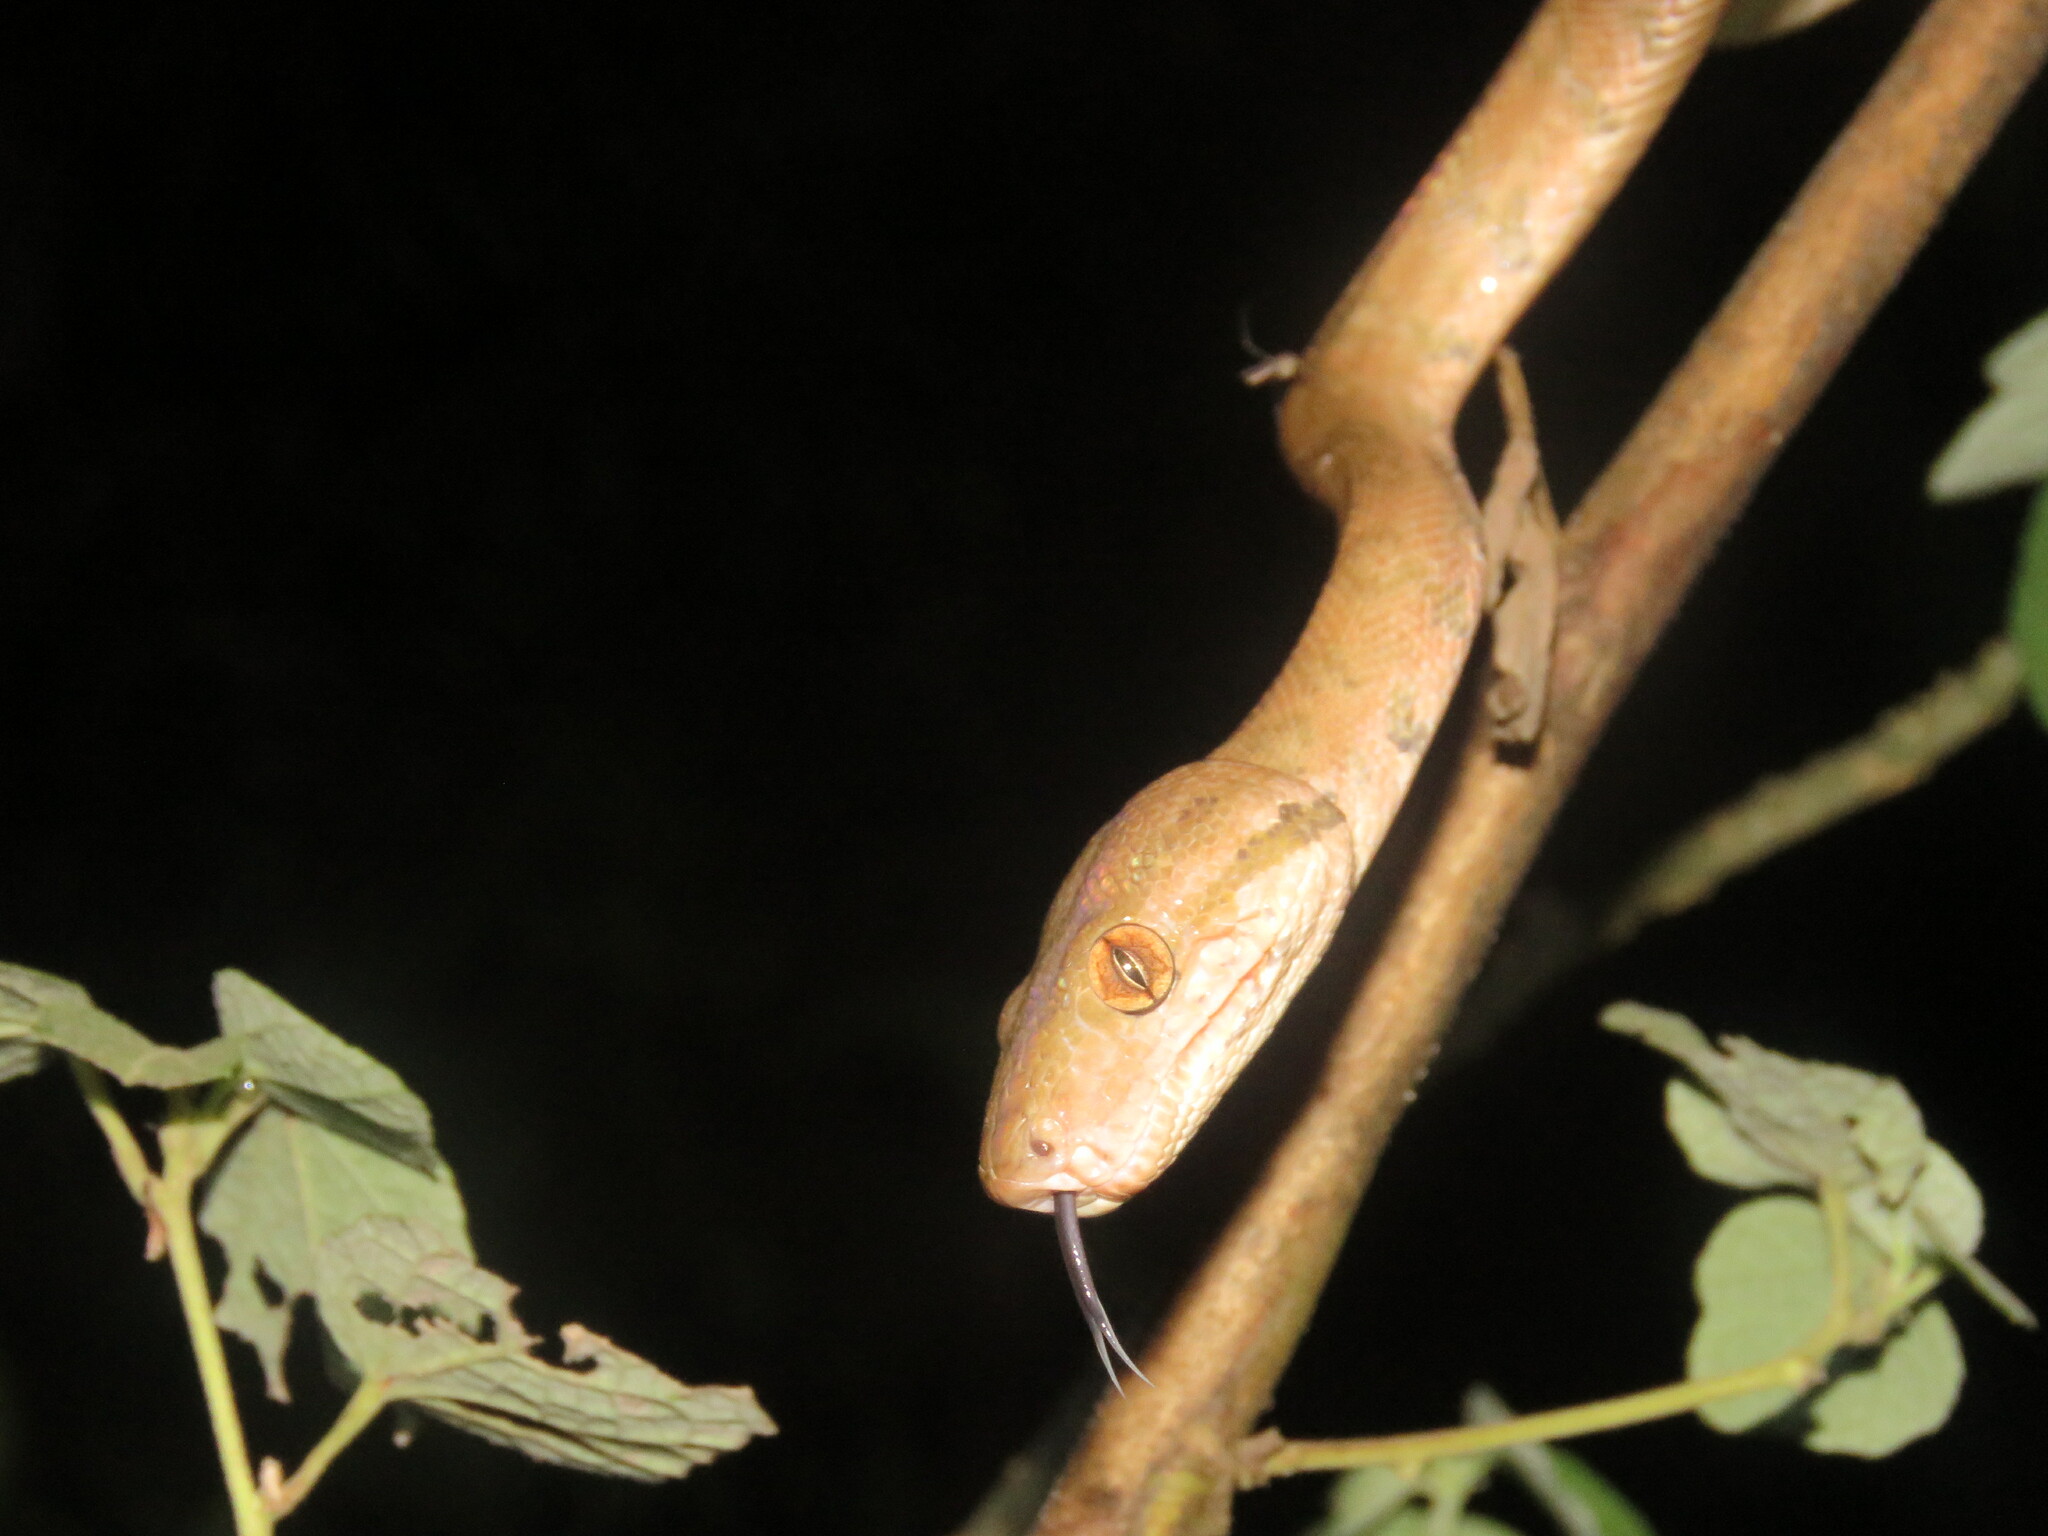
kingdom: Animalia
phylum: Chordata
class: Squamata
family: Boidae
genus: Corallus
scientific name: Corallus hortulana
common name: Garden tree boa
